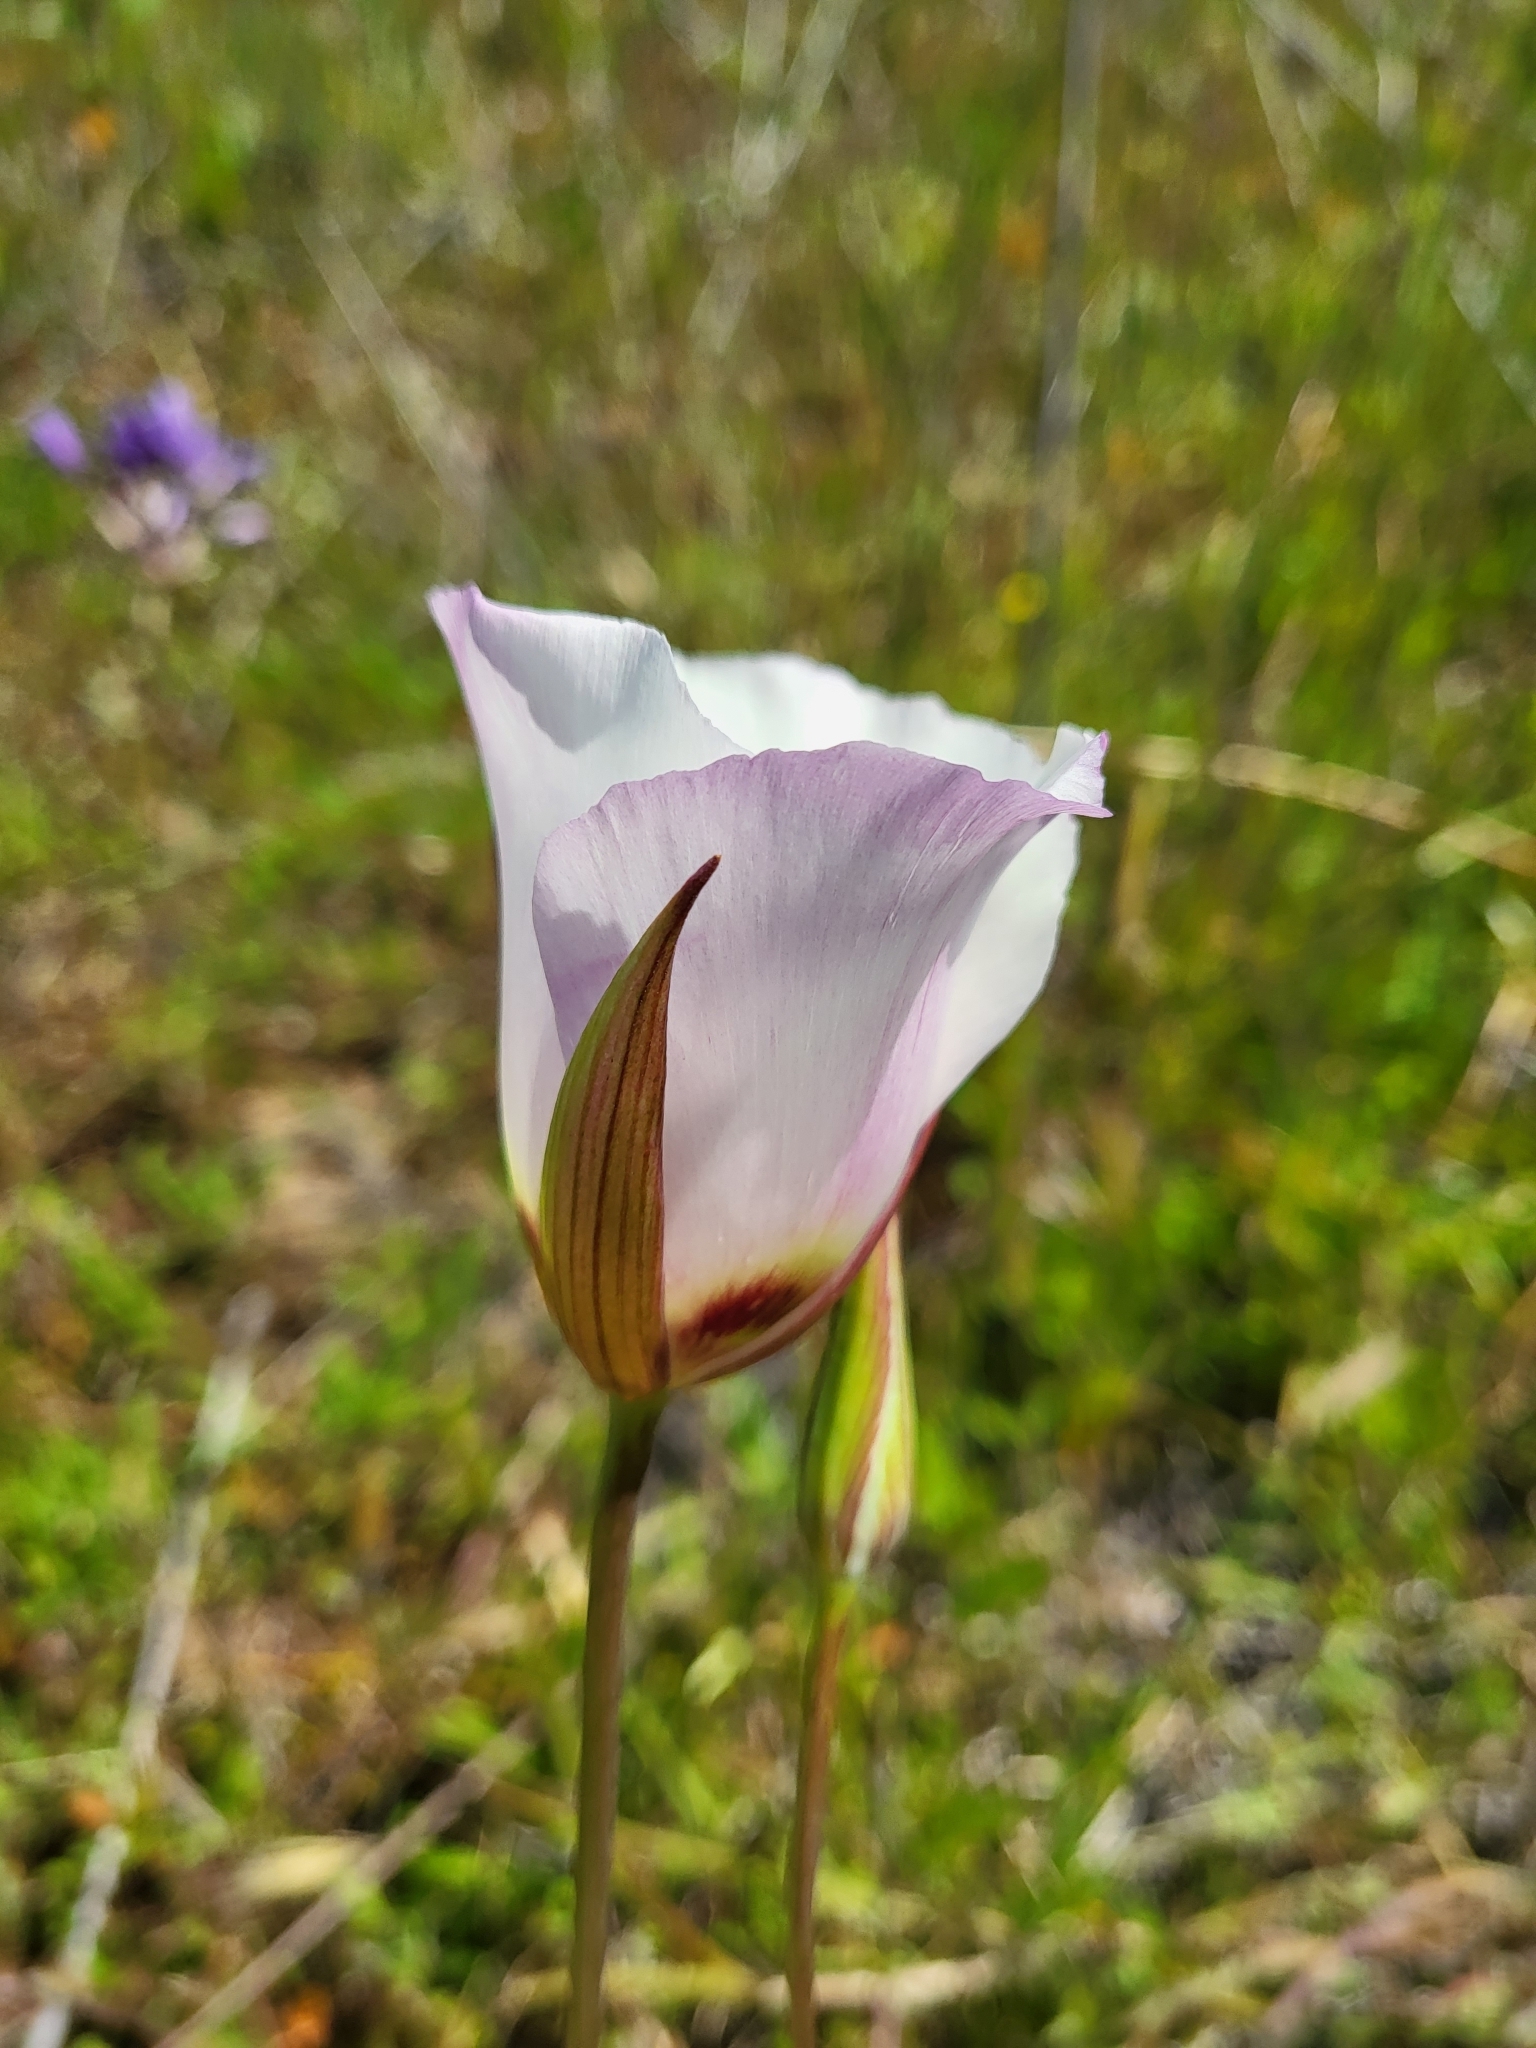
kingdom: Plantae
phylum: Tracheophyta
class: Liliopsida
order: Liliales
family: Liliaceae
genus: Calochortus
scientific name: Calochortus catalinae
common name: Catalina mariposa-lily
